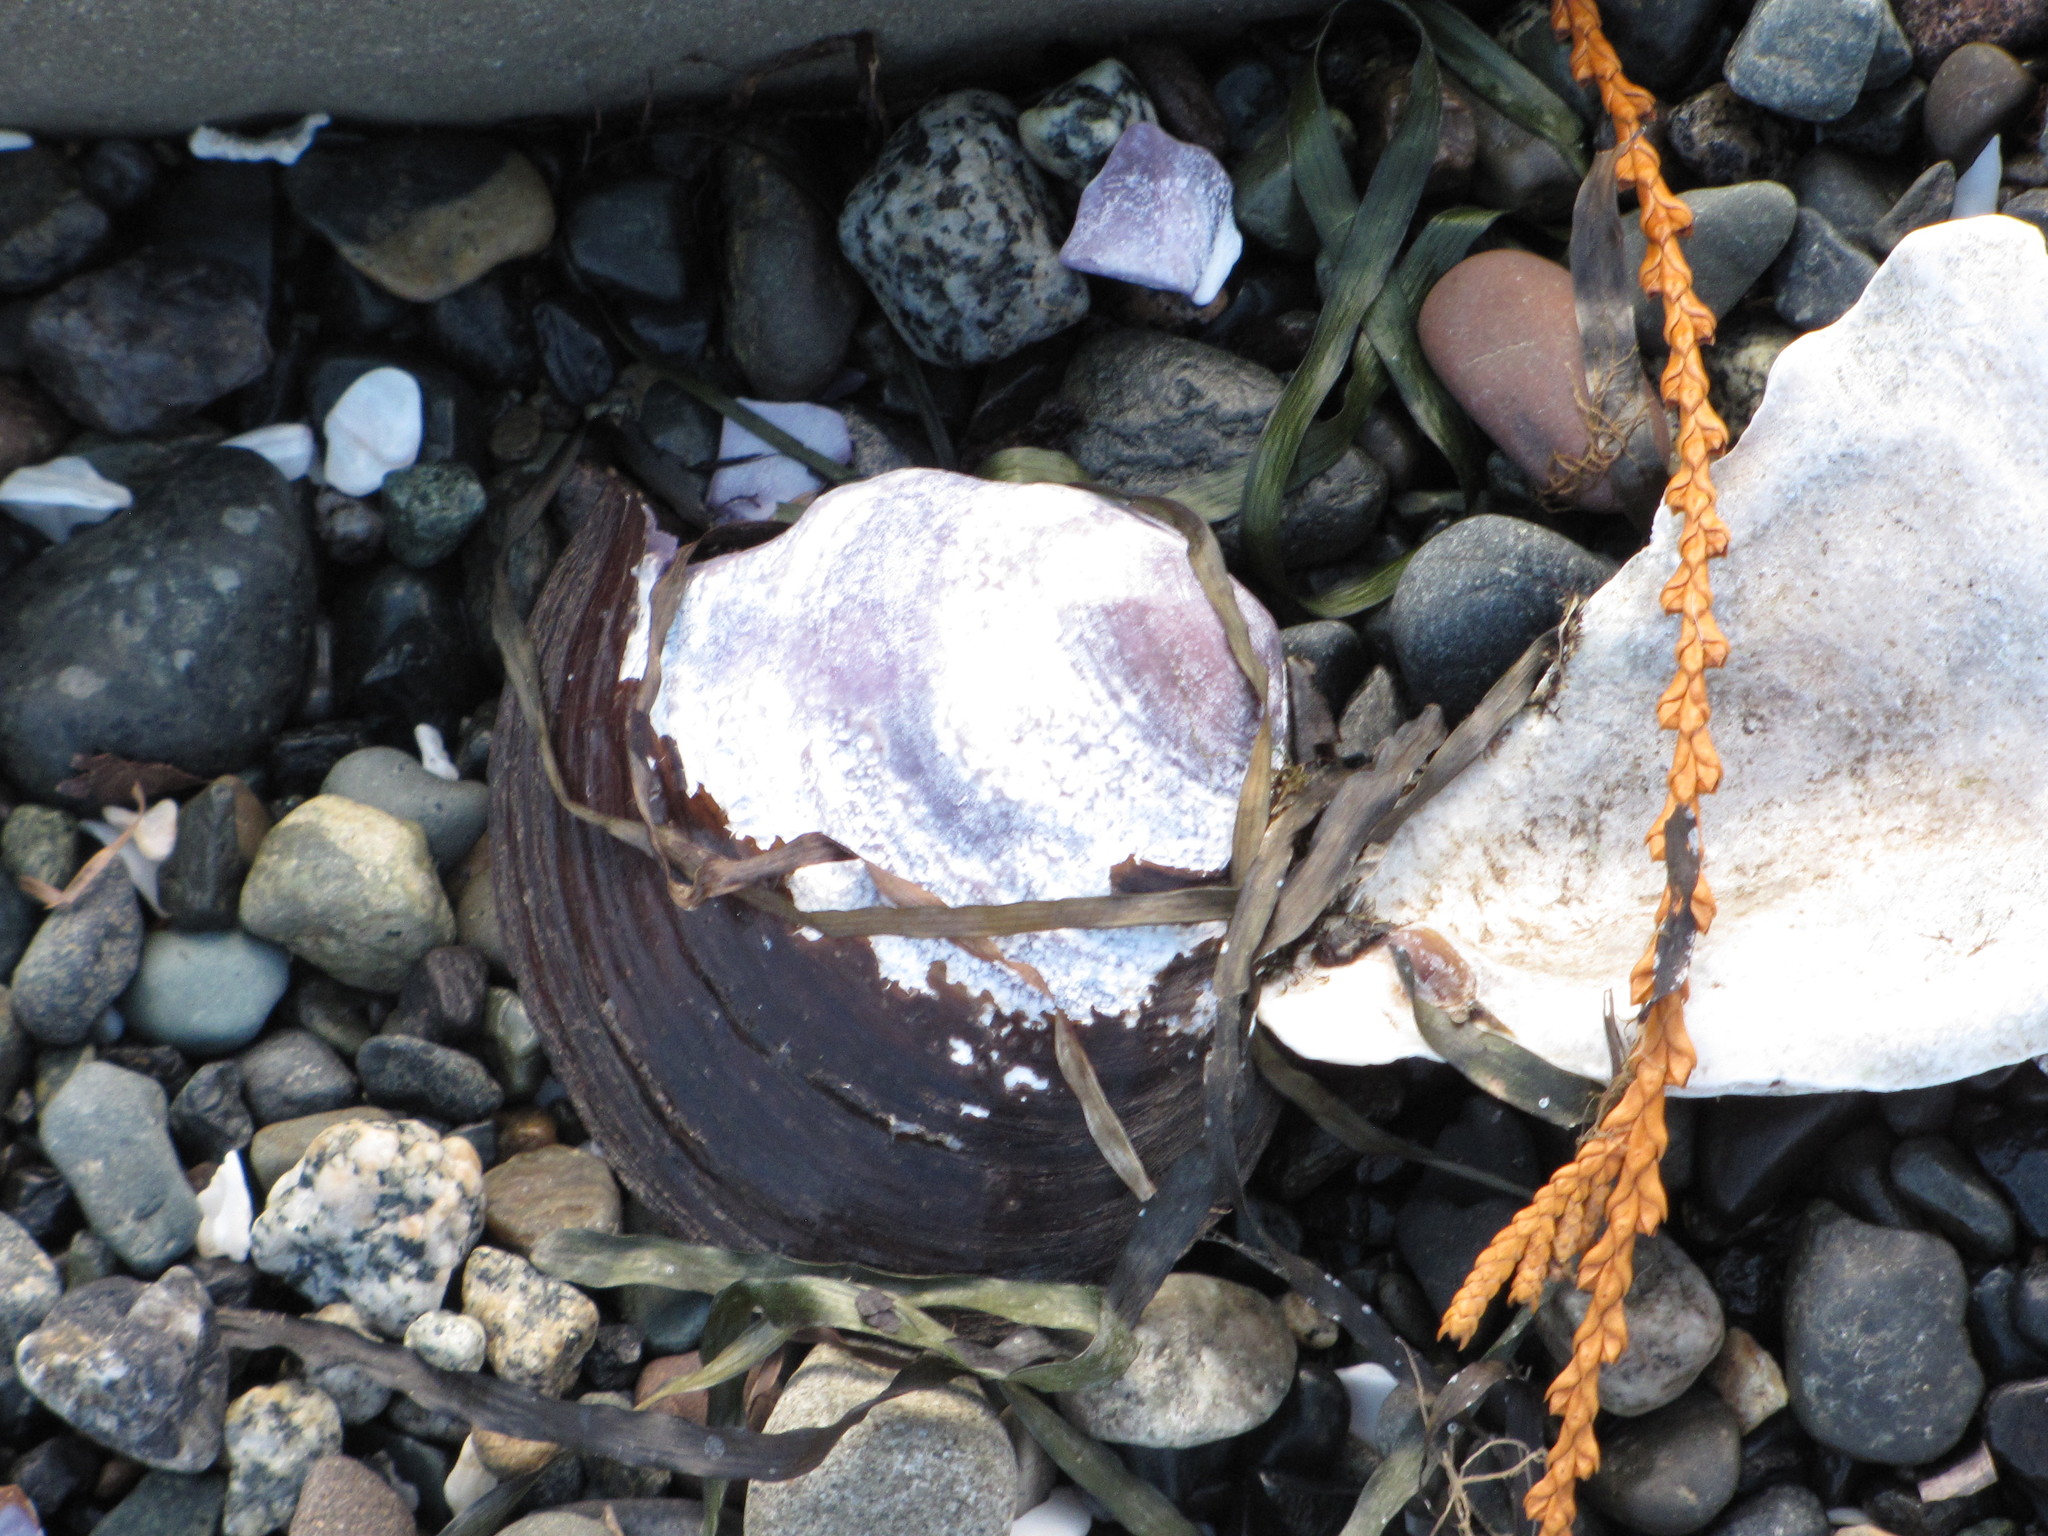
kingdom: Animalia
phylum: Mollusca
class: Bivalvia
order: Cardiida
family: Psammobiidae
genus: Nuttallia
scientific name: Nuttallia obscurata
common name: Purple mahogany-clam
